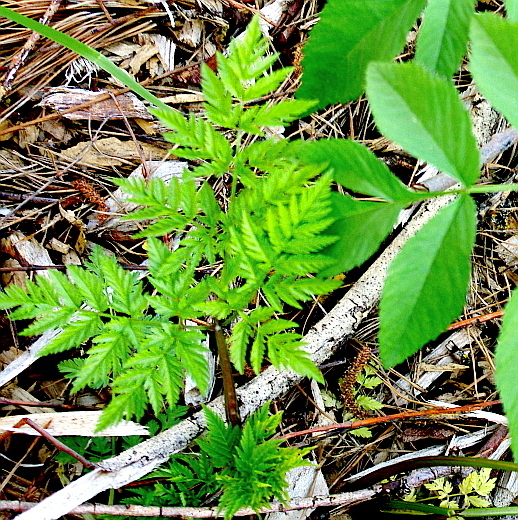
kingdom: Plantae
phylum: Tracheophyta
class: Magnoliopsida
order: Apiales
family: Apiaceae
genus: Anthriscus
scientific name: Anthriscus sylvestris
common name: Cow parsley
